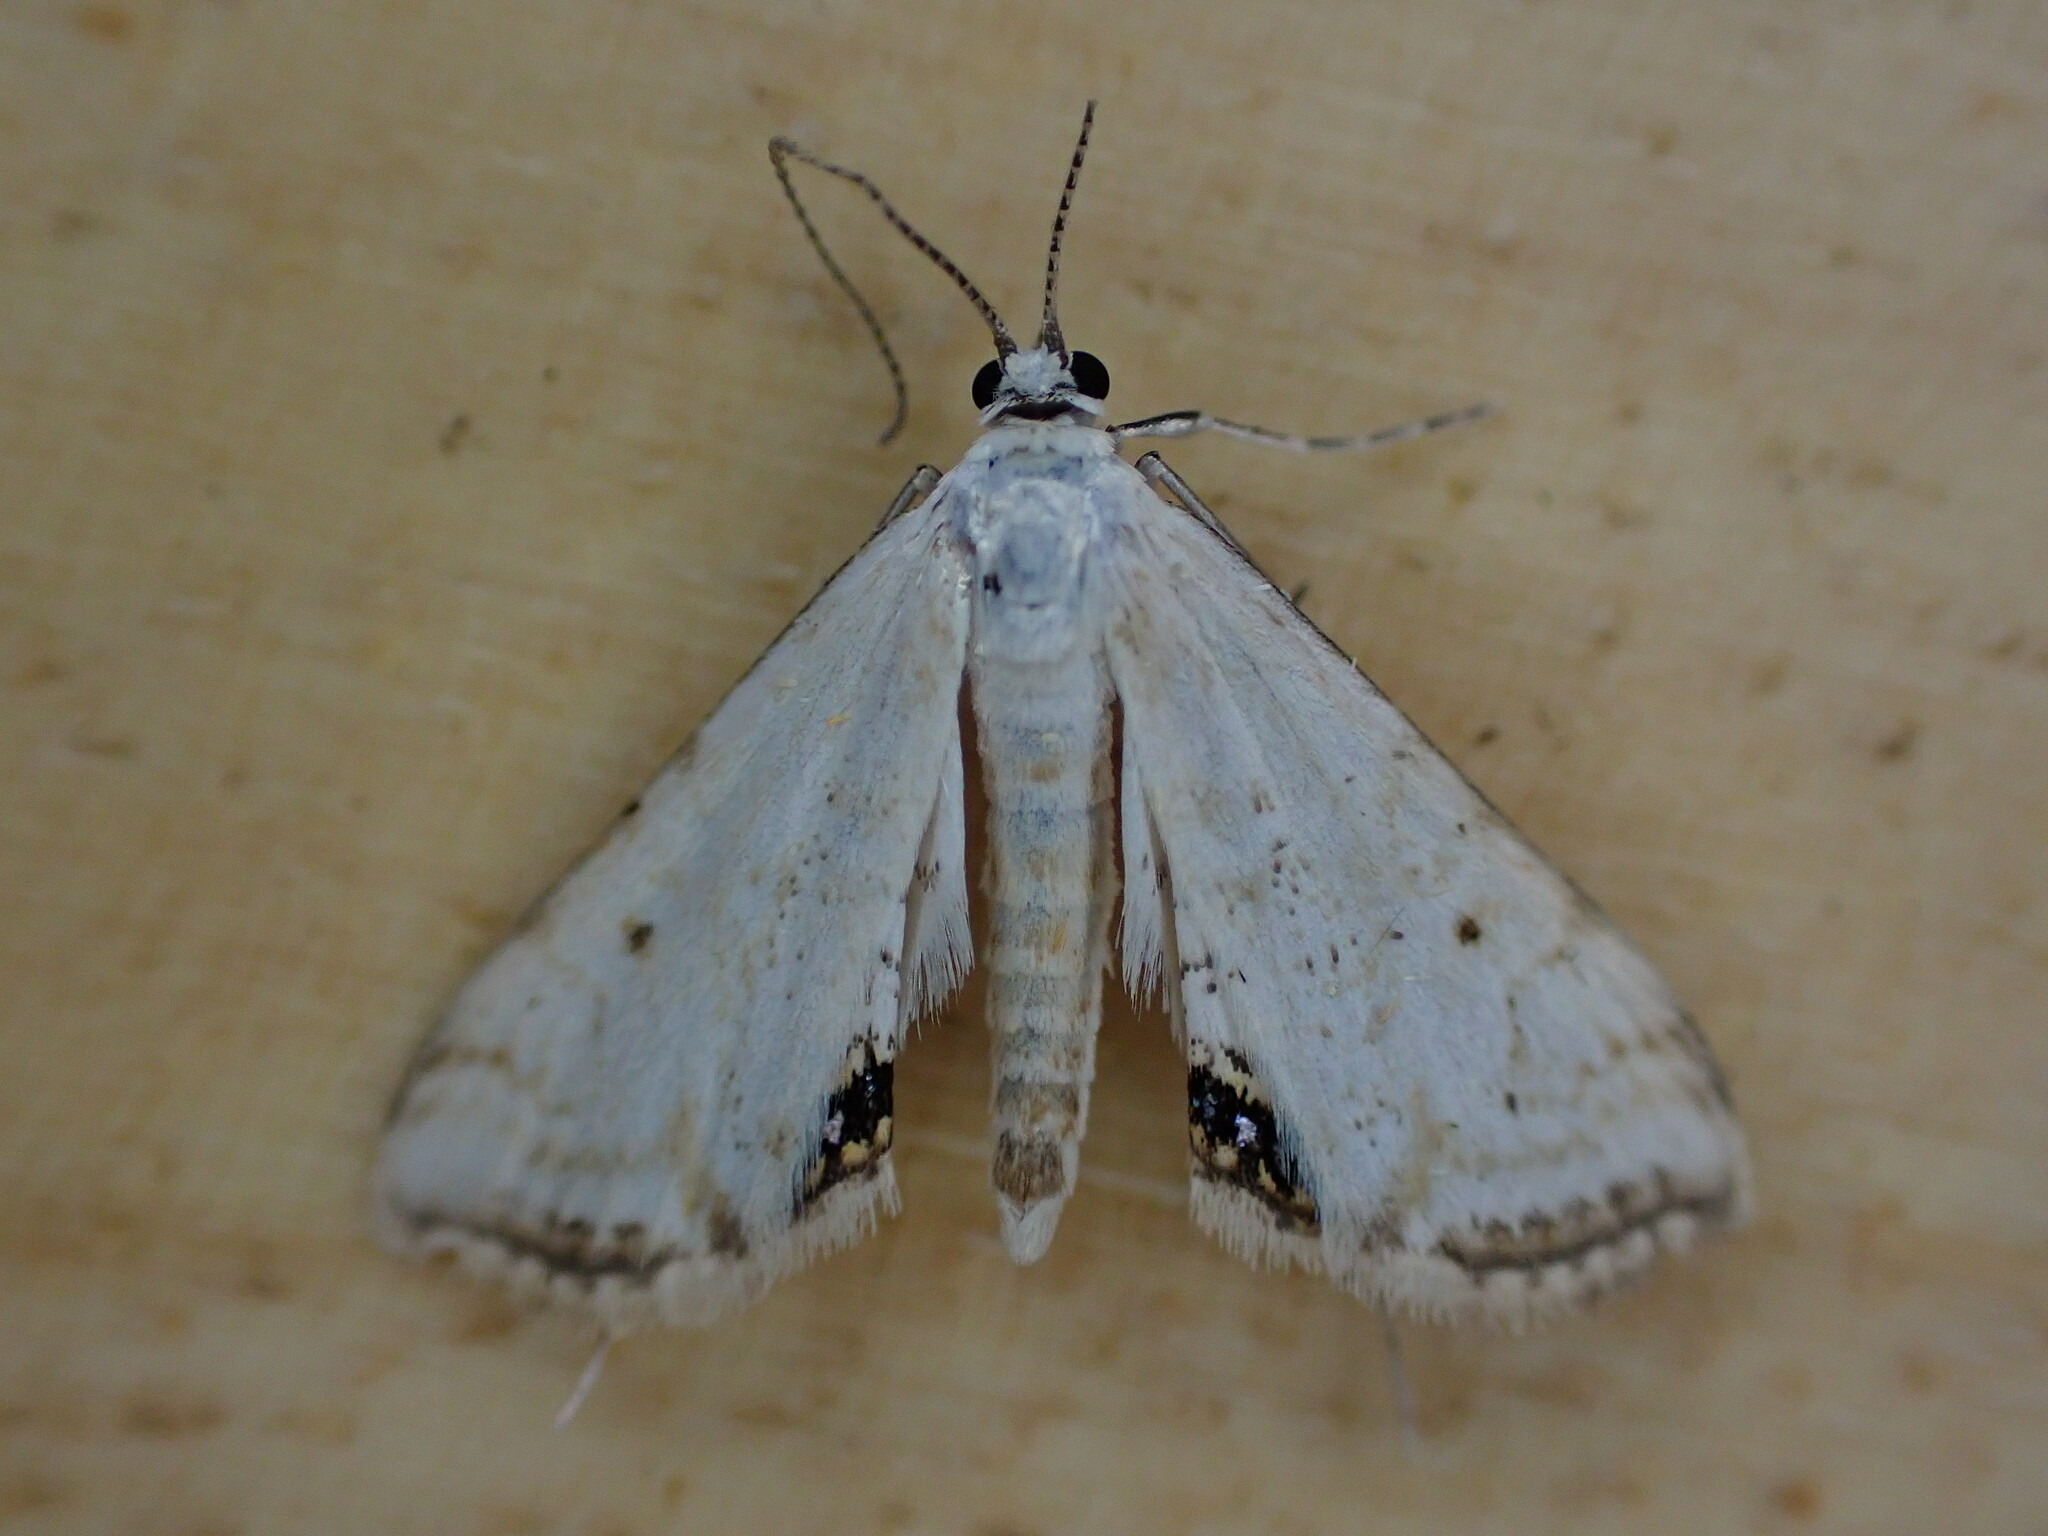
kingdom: Animalia
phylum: Arthropoda
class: Insecta
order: Lepidoptera
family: Crambidae
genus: Cataclysta
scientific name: Cataclysta lemnata
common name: Small china-mark
